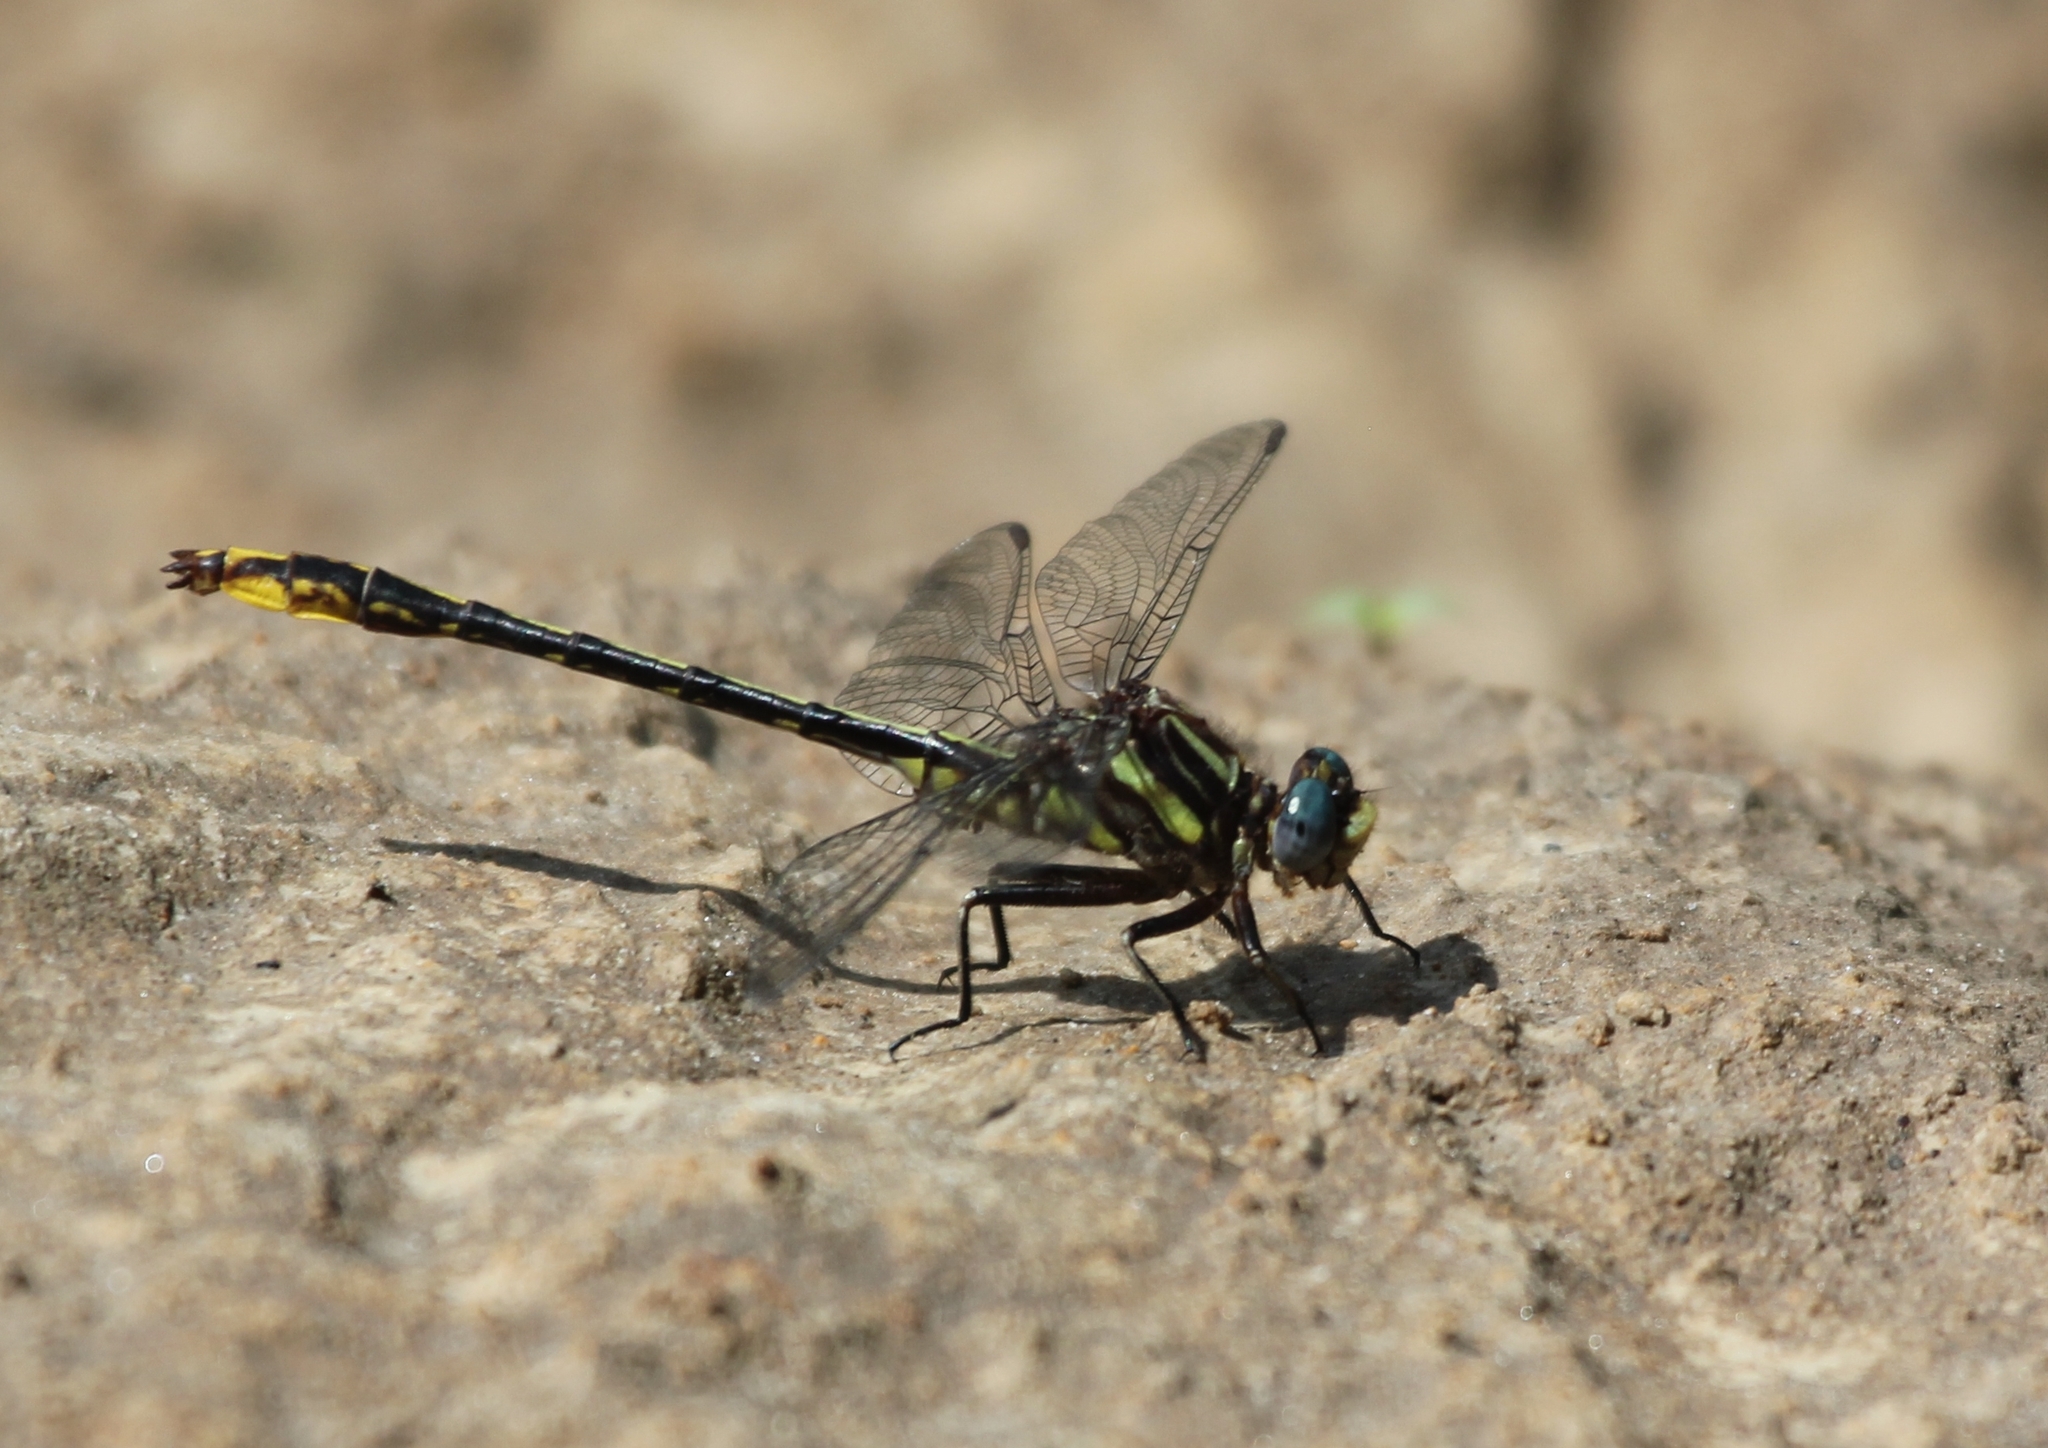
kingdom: Animalia
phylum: Arthropoda
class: Insecta
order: Odonata
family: Gomphidae
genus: Phanogomphus
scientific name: Phanogomphus exilis
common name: Lancet clubtail
